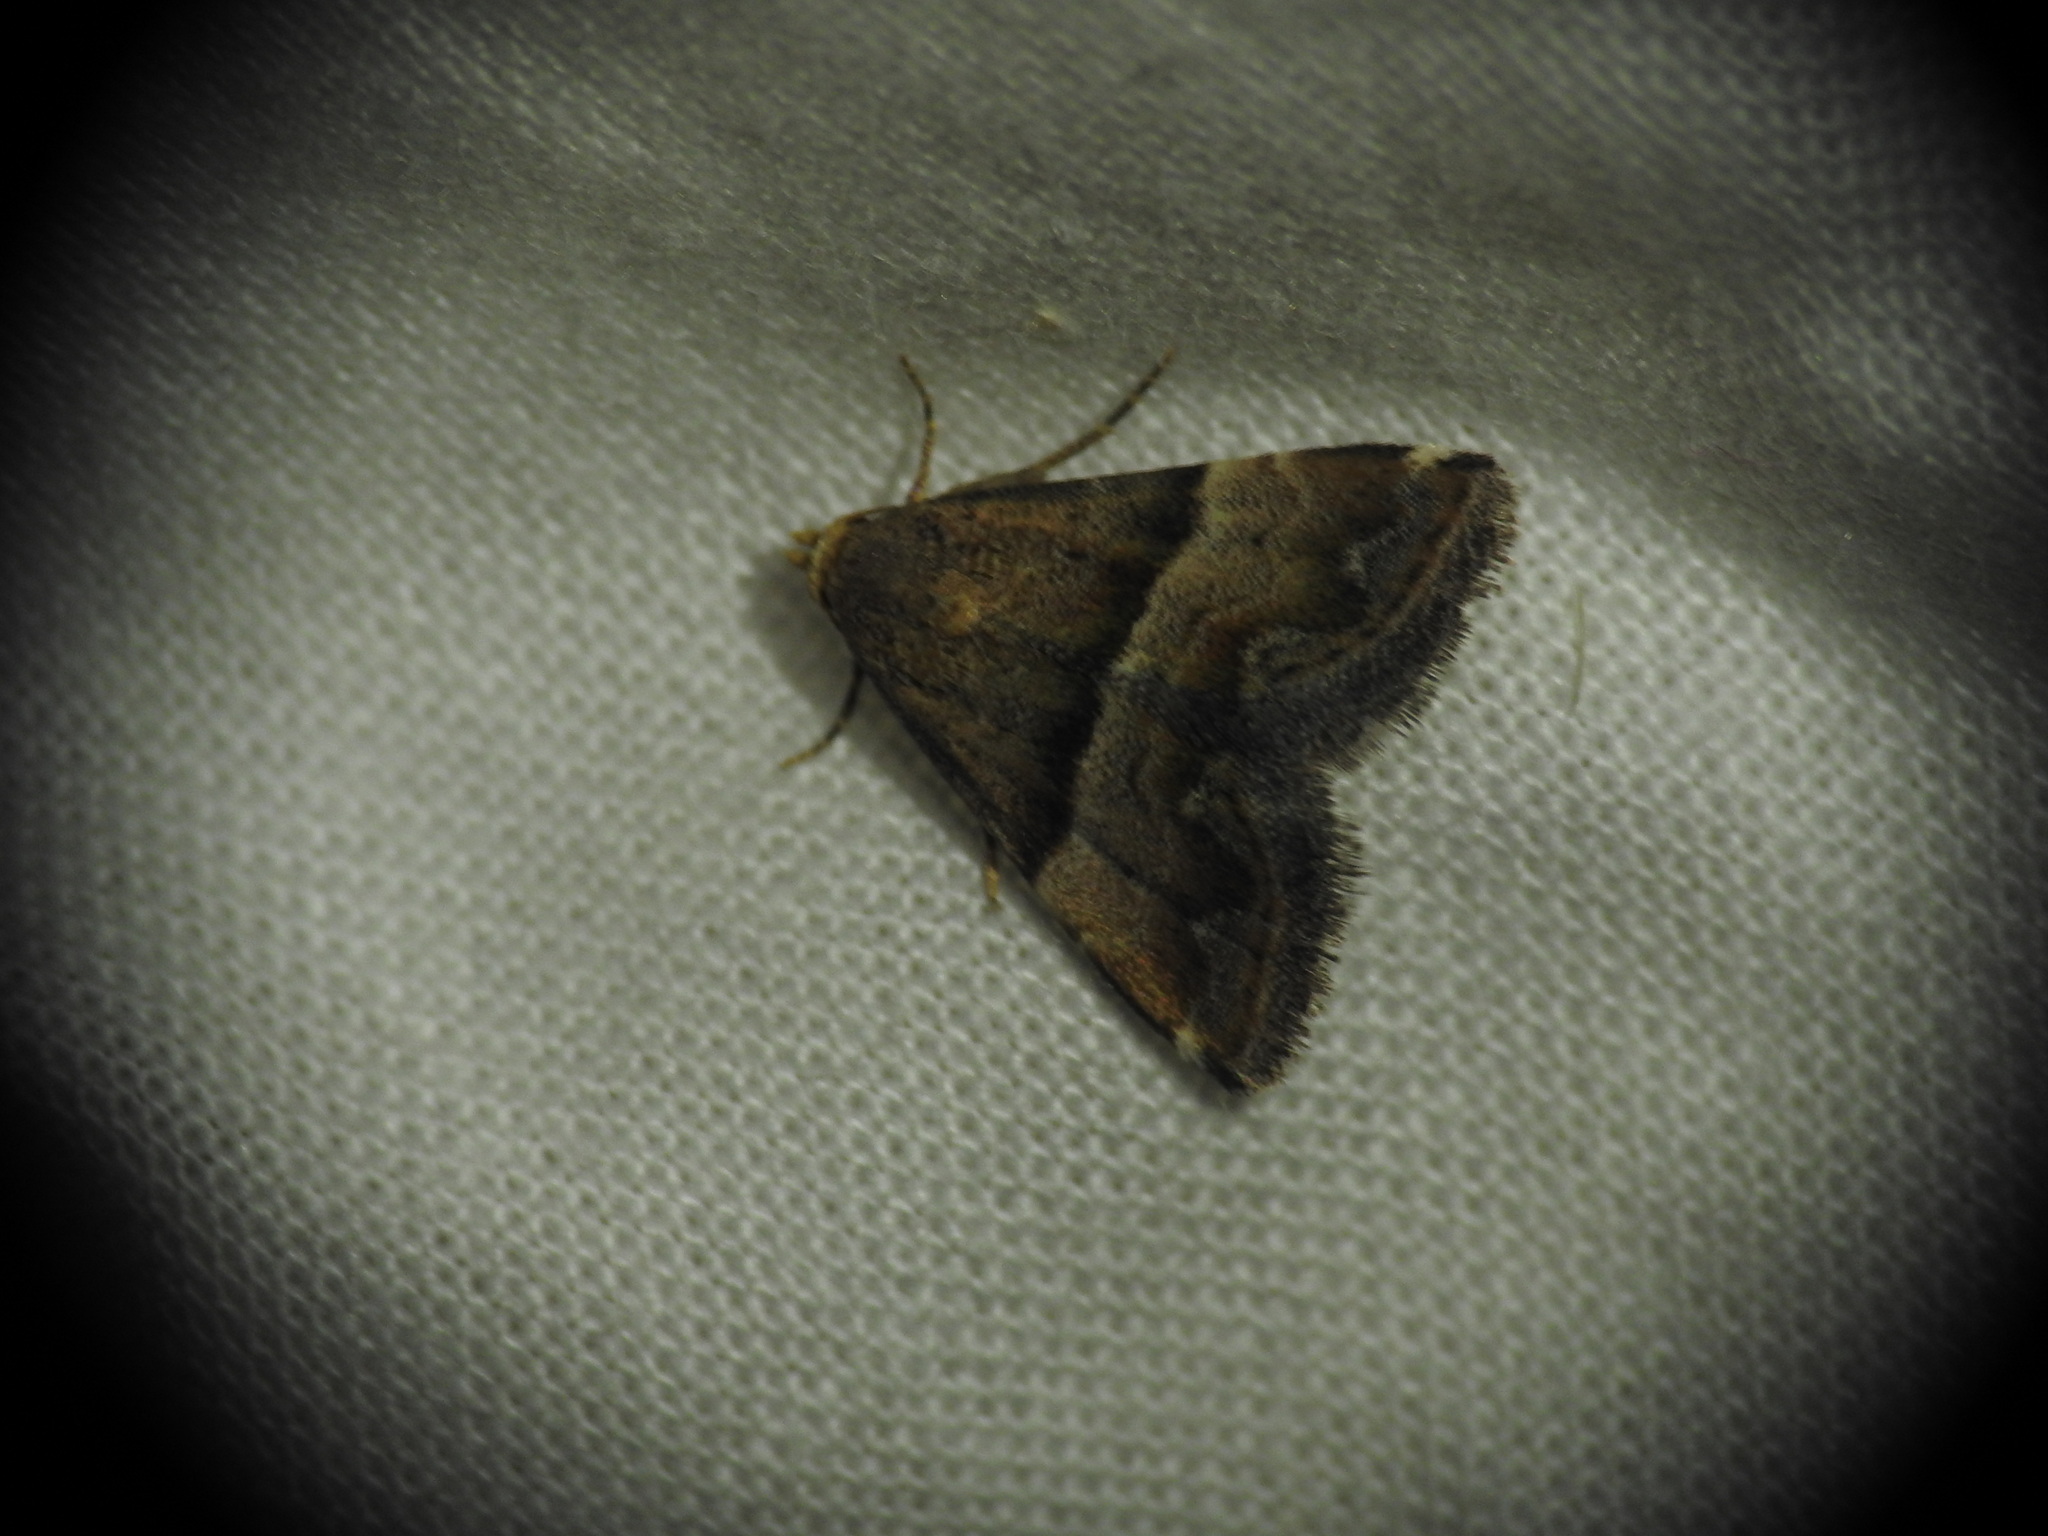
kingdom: Animalia
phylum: Arthropoda
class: Insecta
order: Lepidoptera
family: Noctuidae
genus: Odice
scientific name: Odice jucunda
